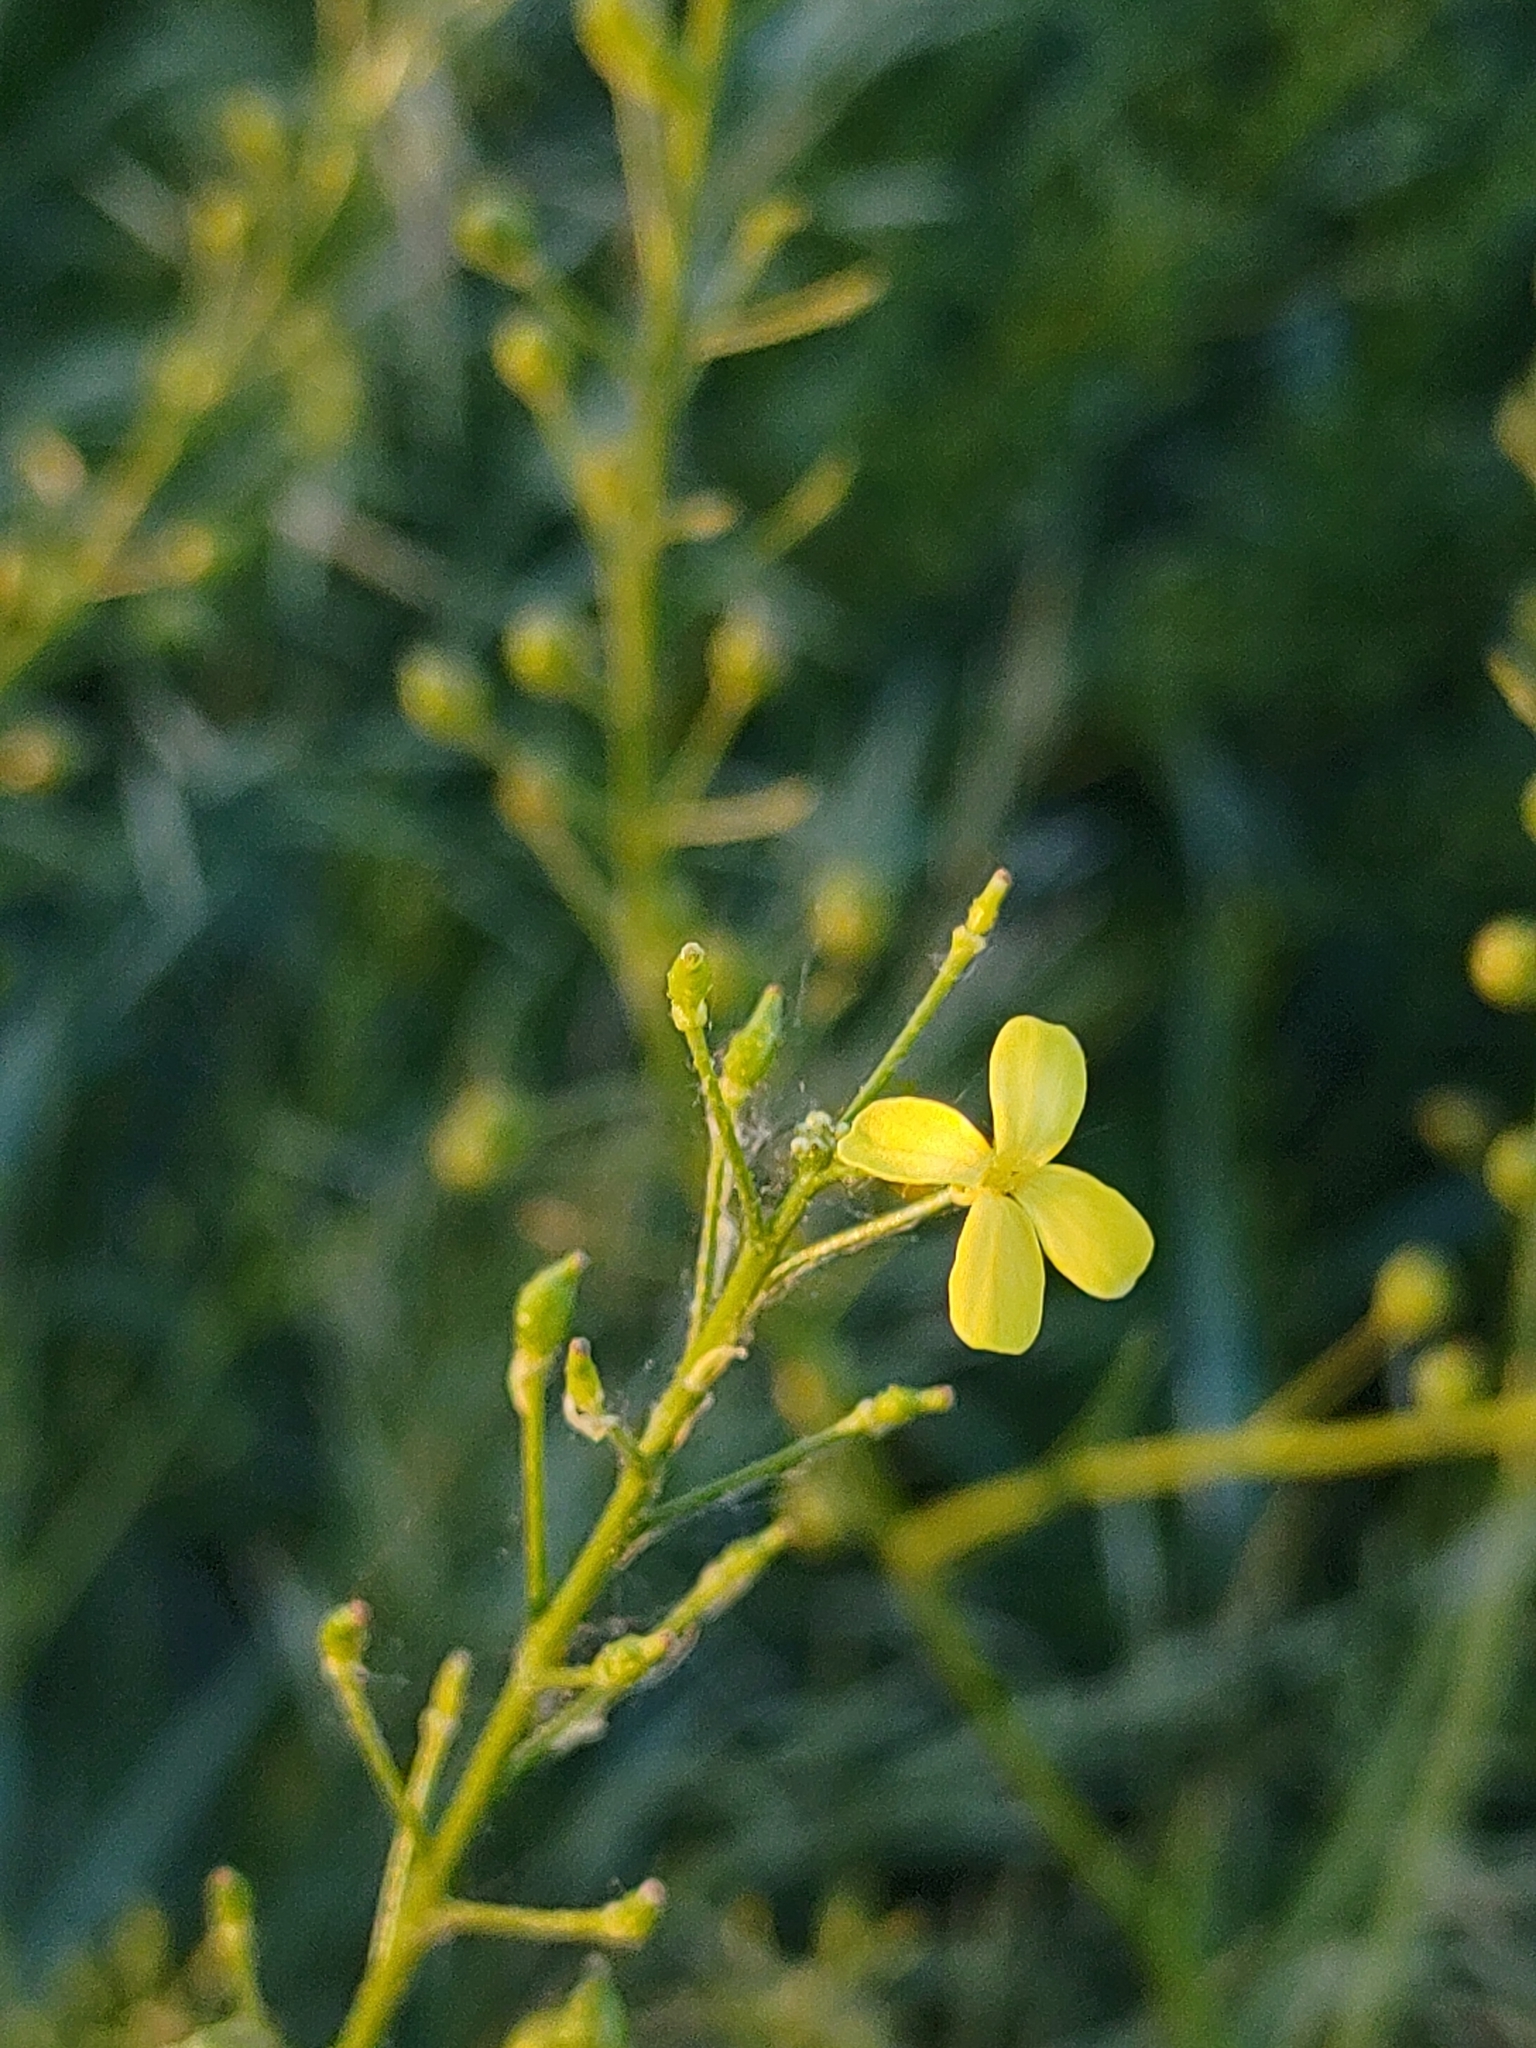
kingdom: Plantae
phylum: Tracheophyta
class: Magnoliopsida
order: Brassicales
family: Brassicaceae
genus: Bunias
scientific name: Bunias orientalis
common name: Warty-cabbage
